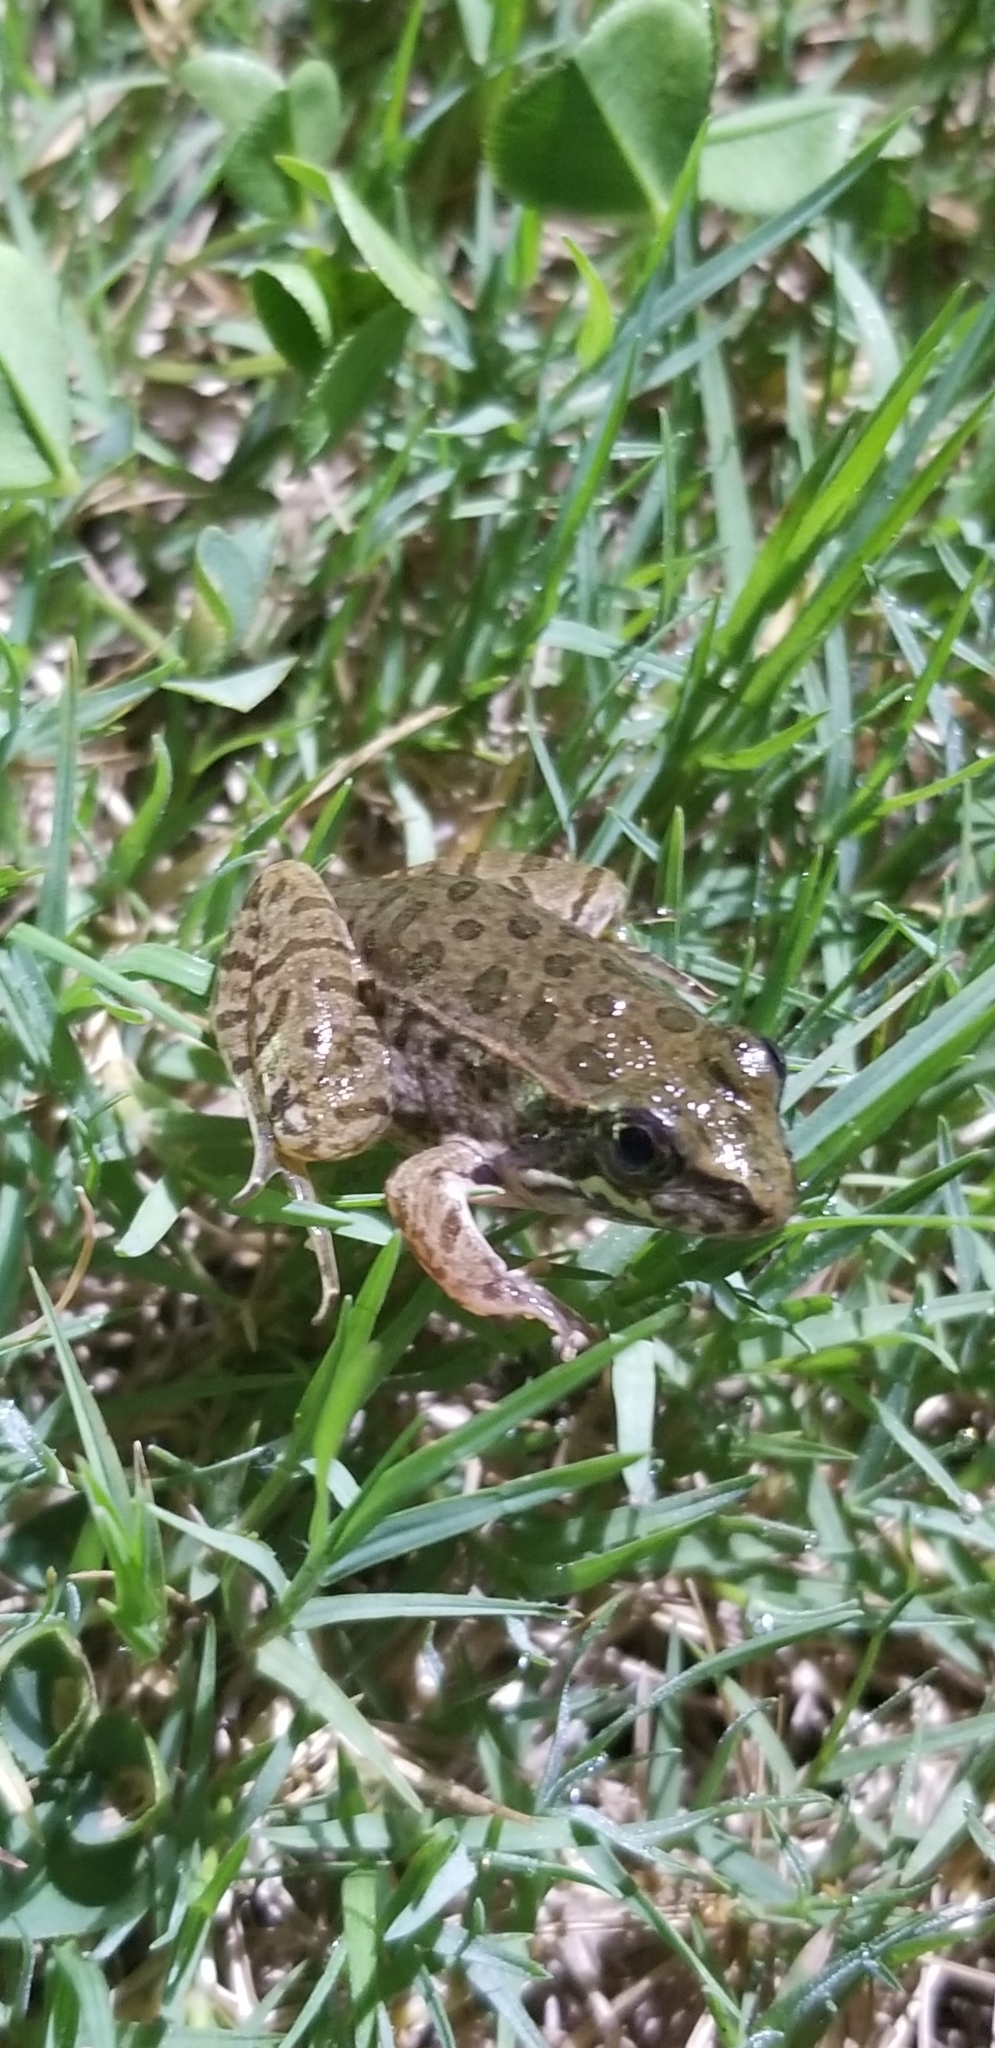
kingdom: Animalia
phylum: Chordata
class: Amphibia
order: Anura
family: Ranidae
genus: Lithobates
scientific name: Lithobates sphenocephalus
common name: Southern leopard frog
